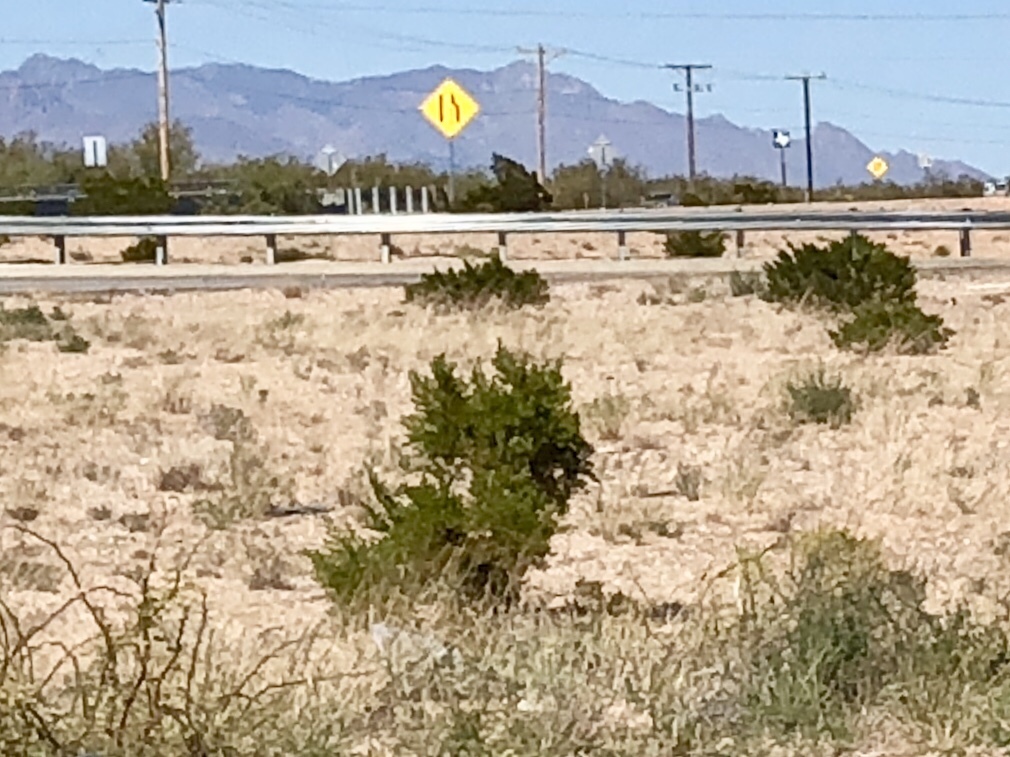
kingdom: Plantae
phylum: Tracheophyta
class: Magnoliopsida
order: Zygophyllales
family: Zygophyllaceae
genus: Larrea
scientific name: Larrea tridentata
